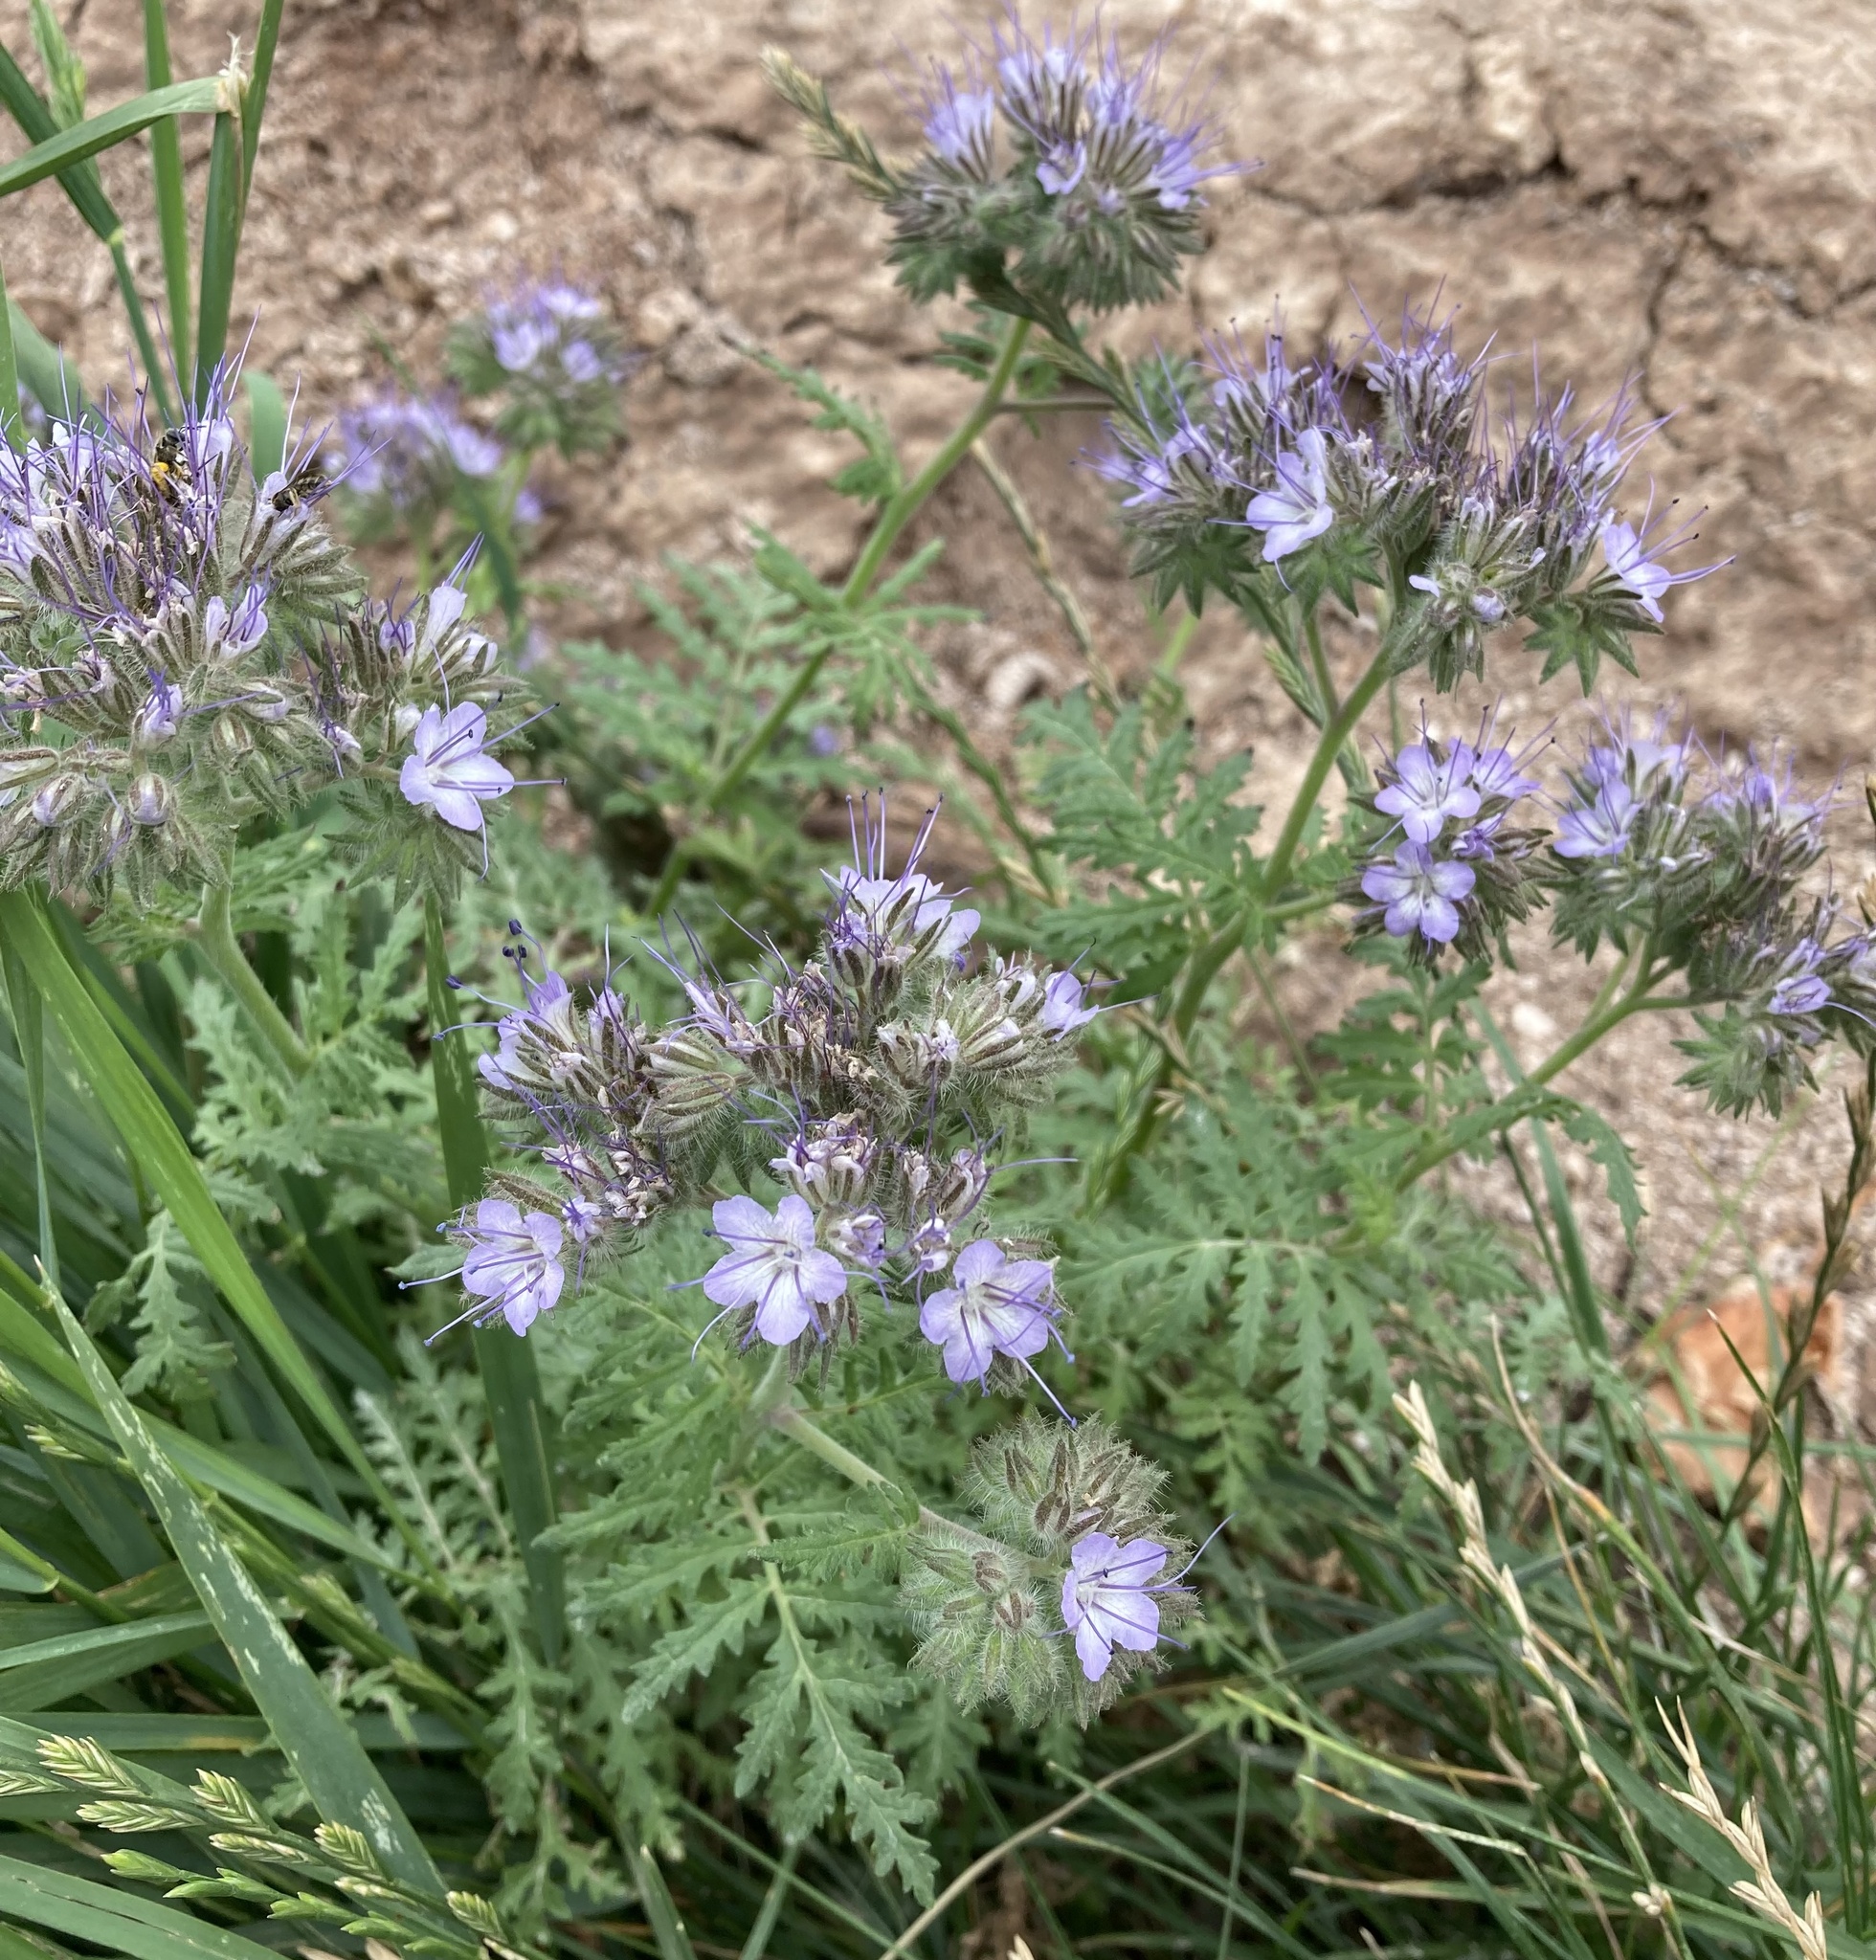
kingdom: Plantae
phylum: Tracheophyta
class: Magnoliopsida
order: Boraginales
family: Hydrophyllaceae
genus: Phacelia
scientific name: Phacelia tanacetifolia
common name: Phacelia
